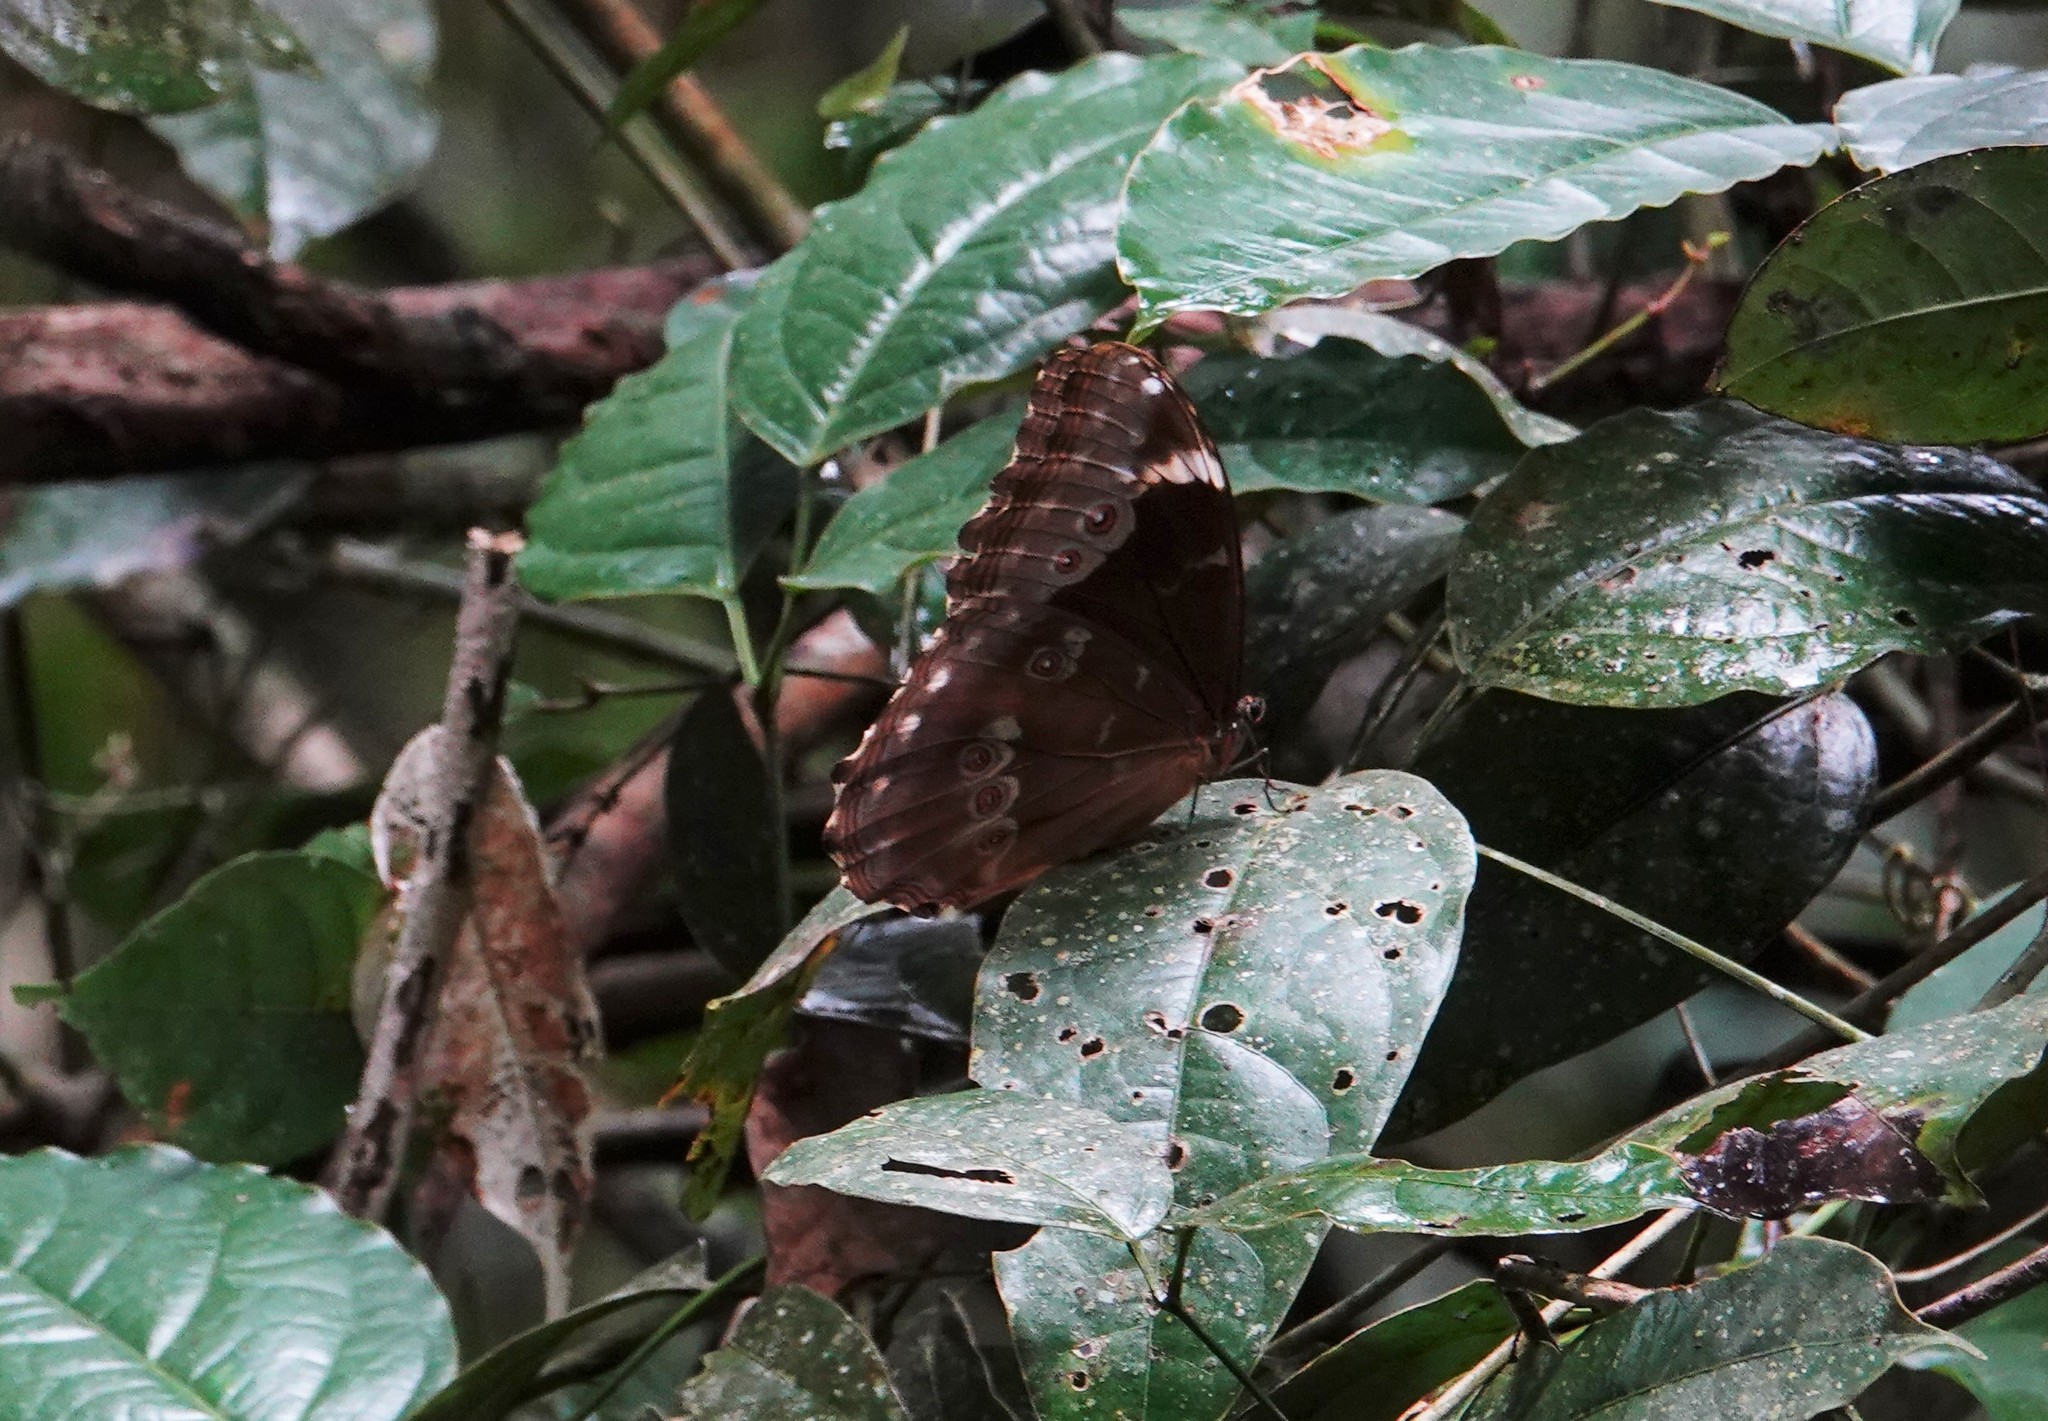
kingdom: Animalia
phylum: Arthropoda
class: Insecta
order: Lepidoptera
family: Nymphalidae
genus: Morpho
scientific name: Morpho menelaus
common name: Menelaus morpho
